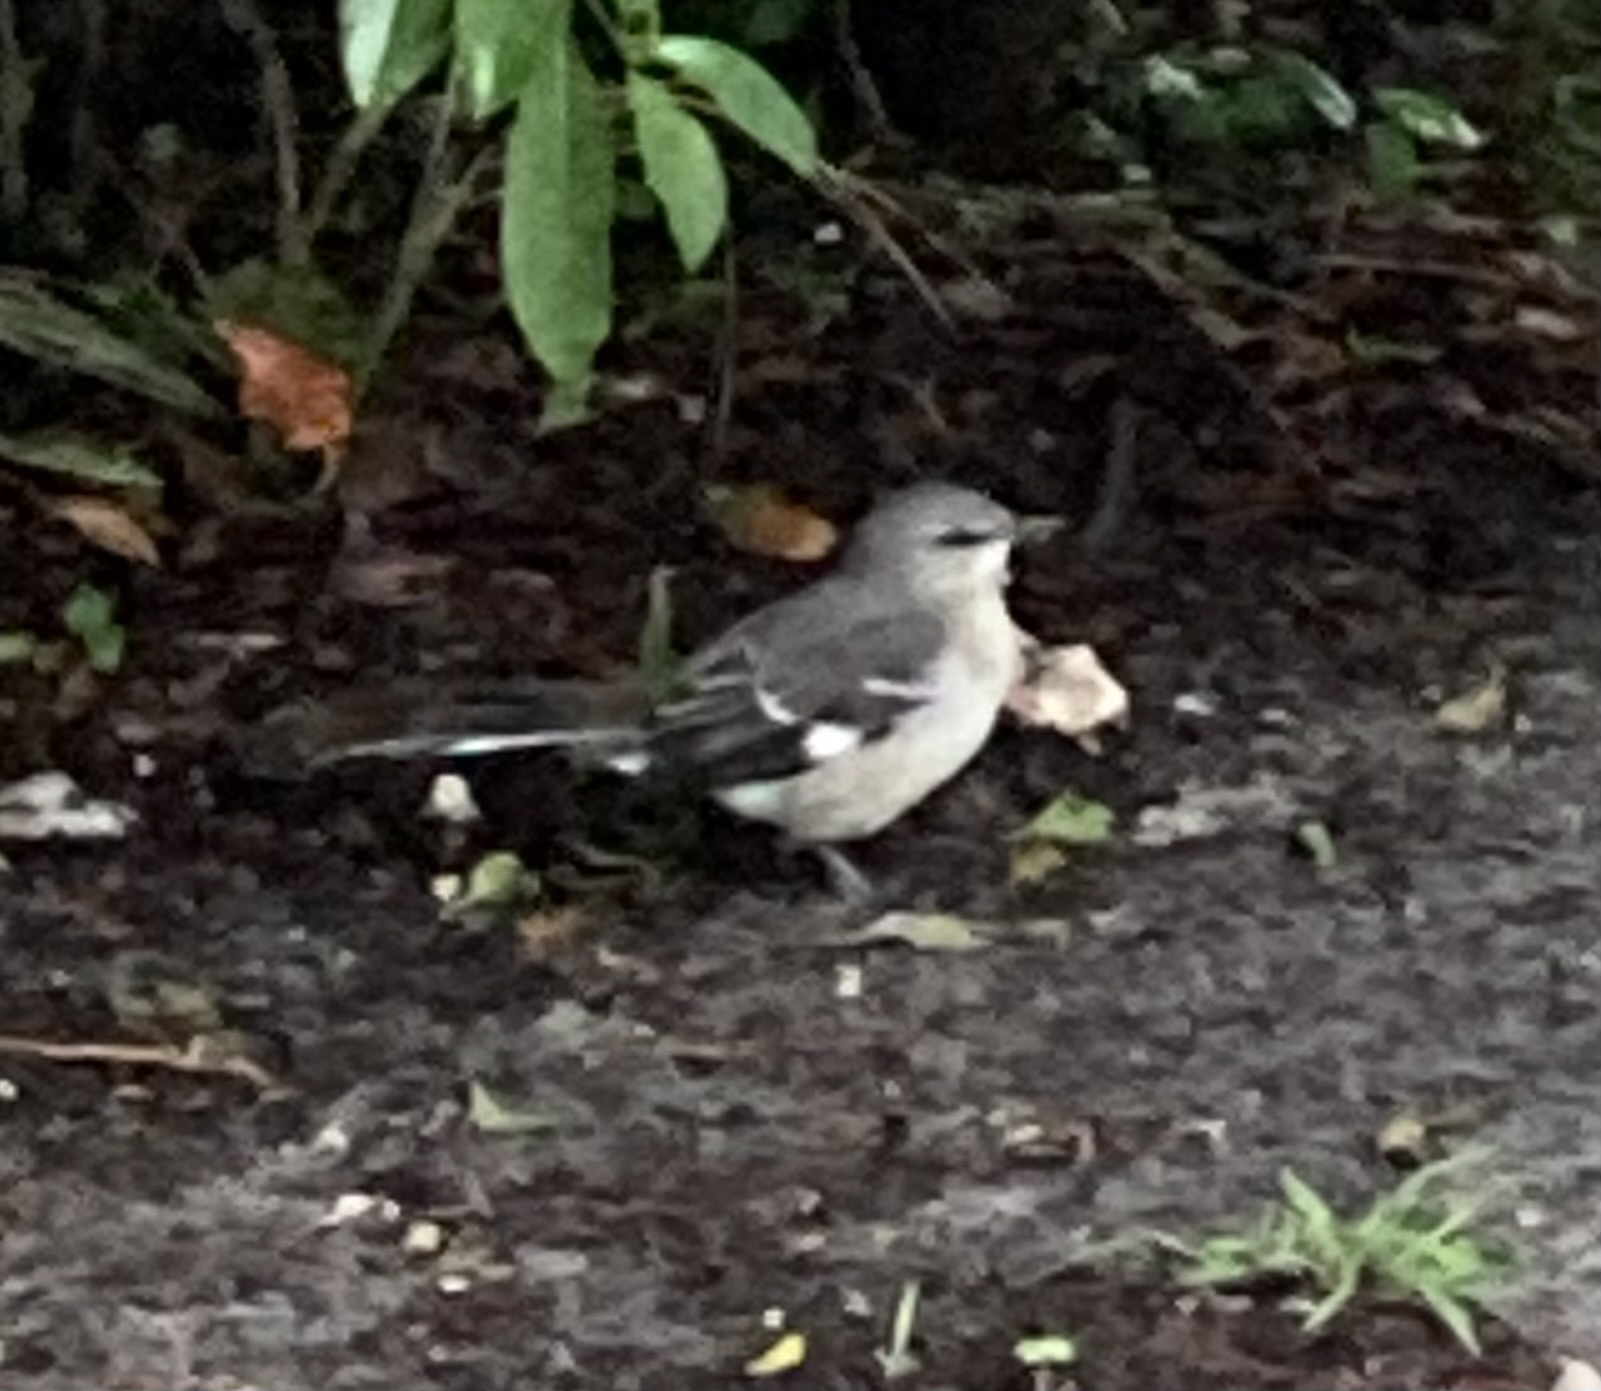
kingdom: Animalia
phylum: Chordata
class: Aves
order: Passeriformes
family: Mimidae
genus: Mimus
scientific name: Mimus polyglottos
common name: Northern mockingbird
